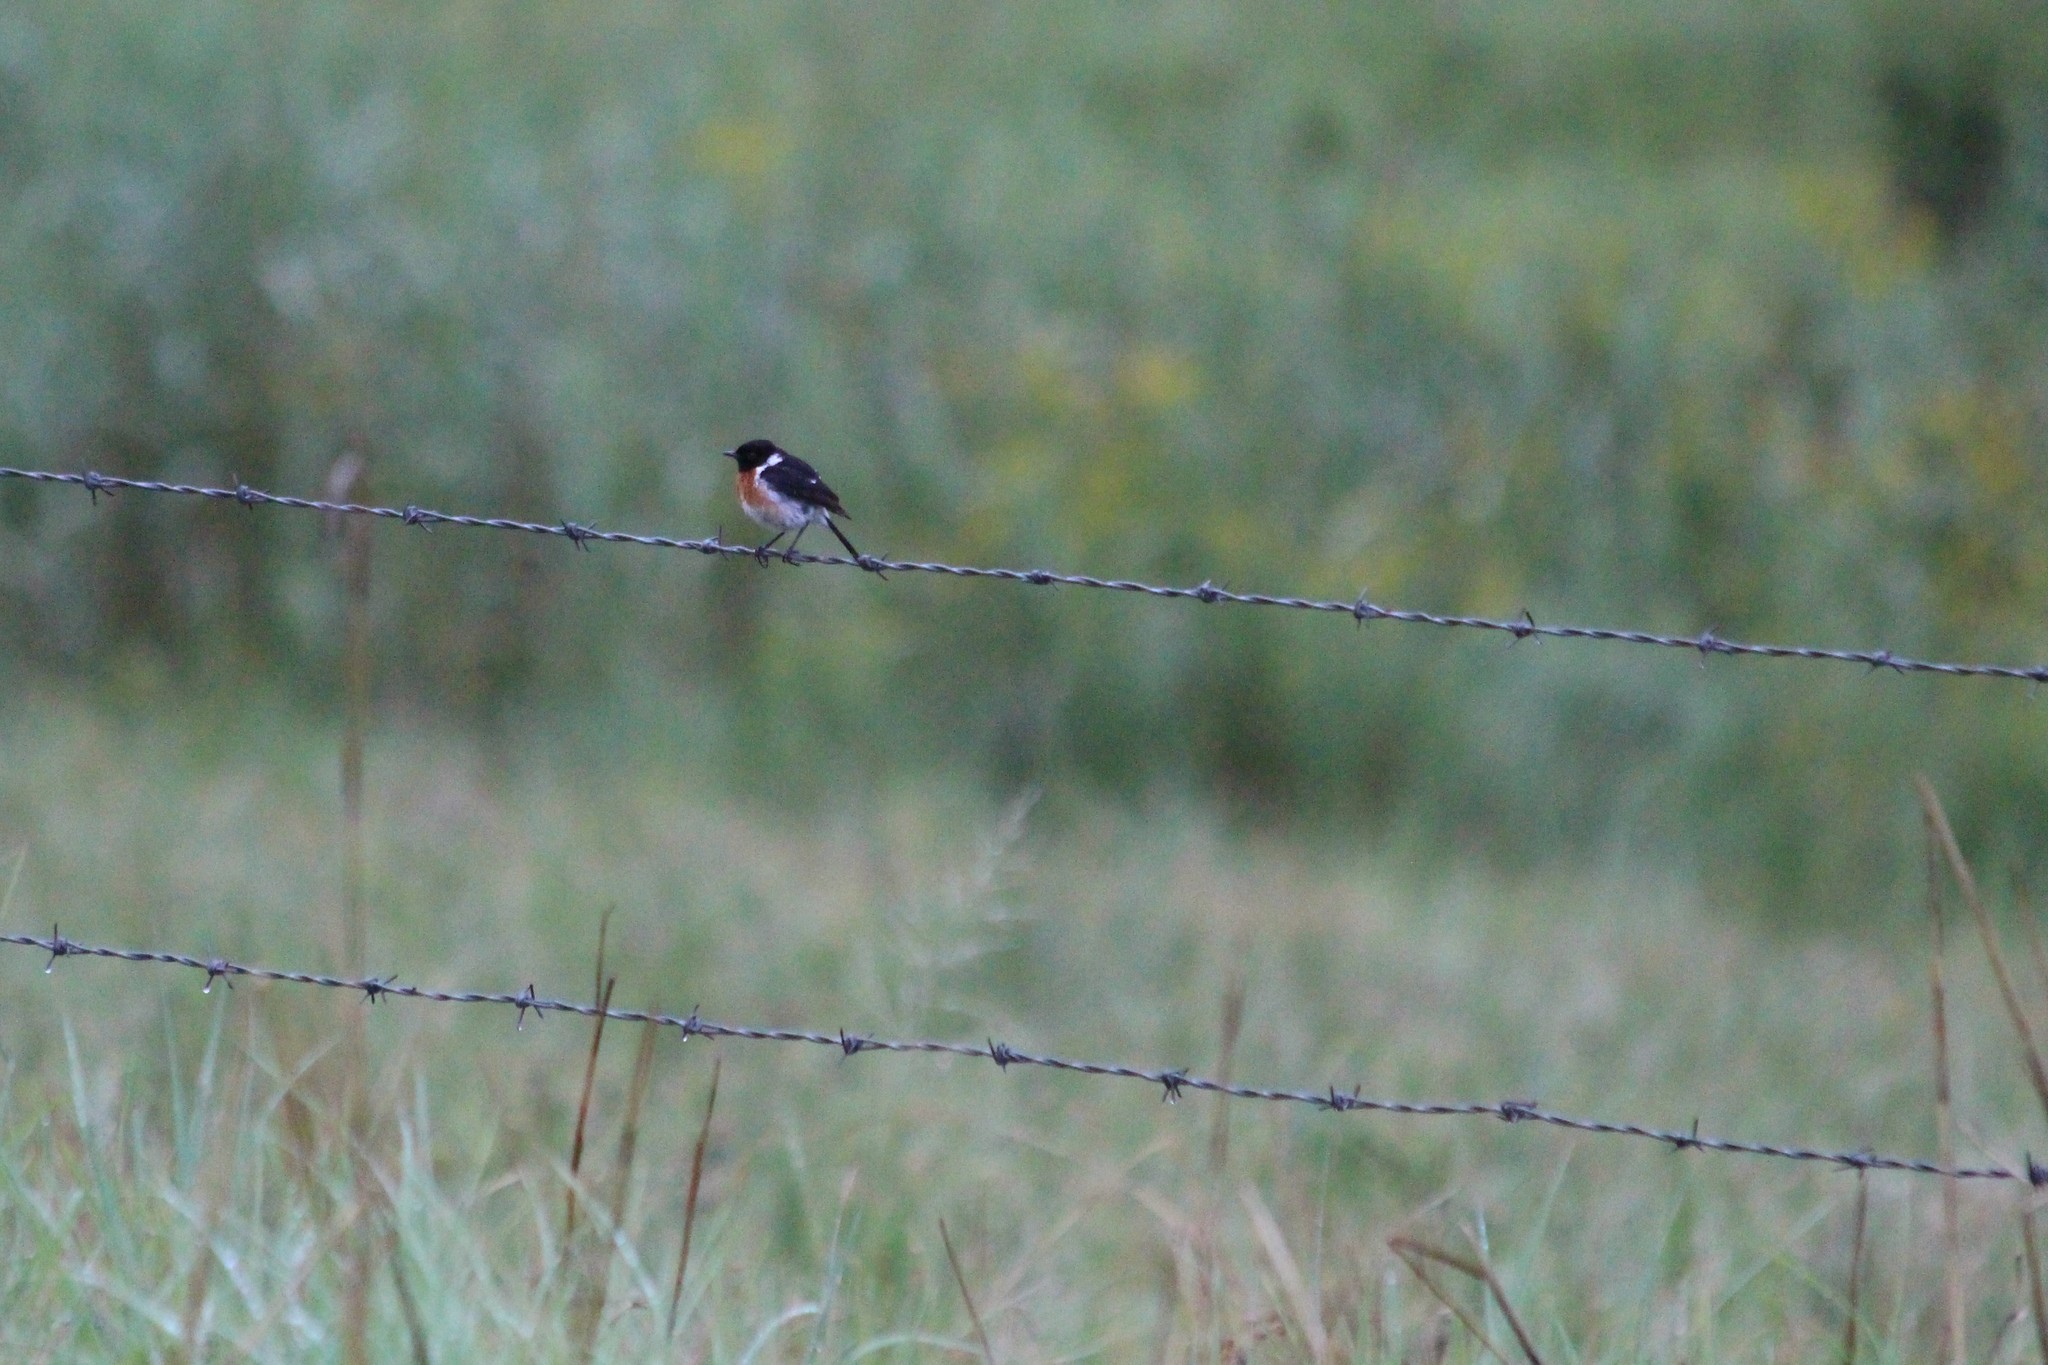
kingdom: Animalia
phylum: Chordata
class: Aves
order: Passeriformes
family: Muscicapidae
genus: Saxicola
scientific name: Saxicola torquatus
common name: African stonechat
